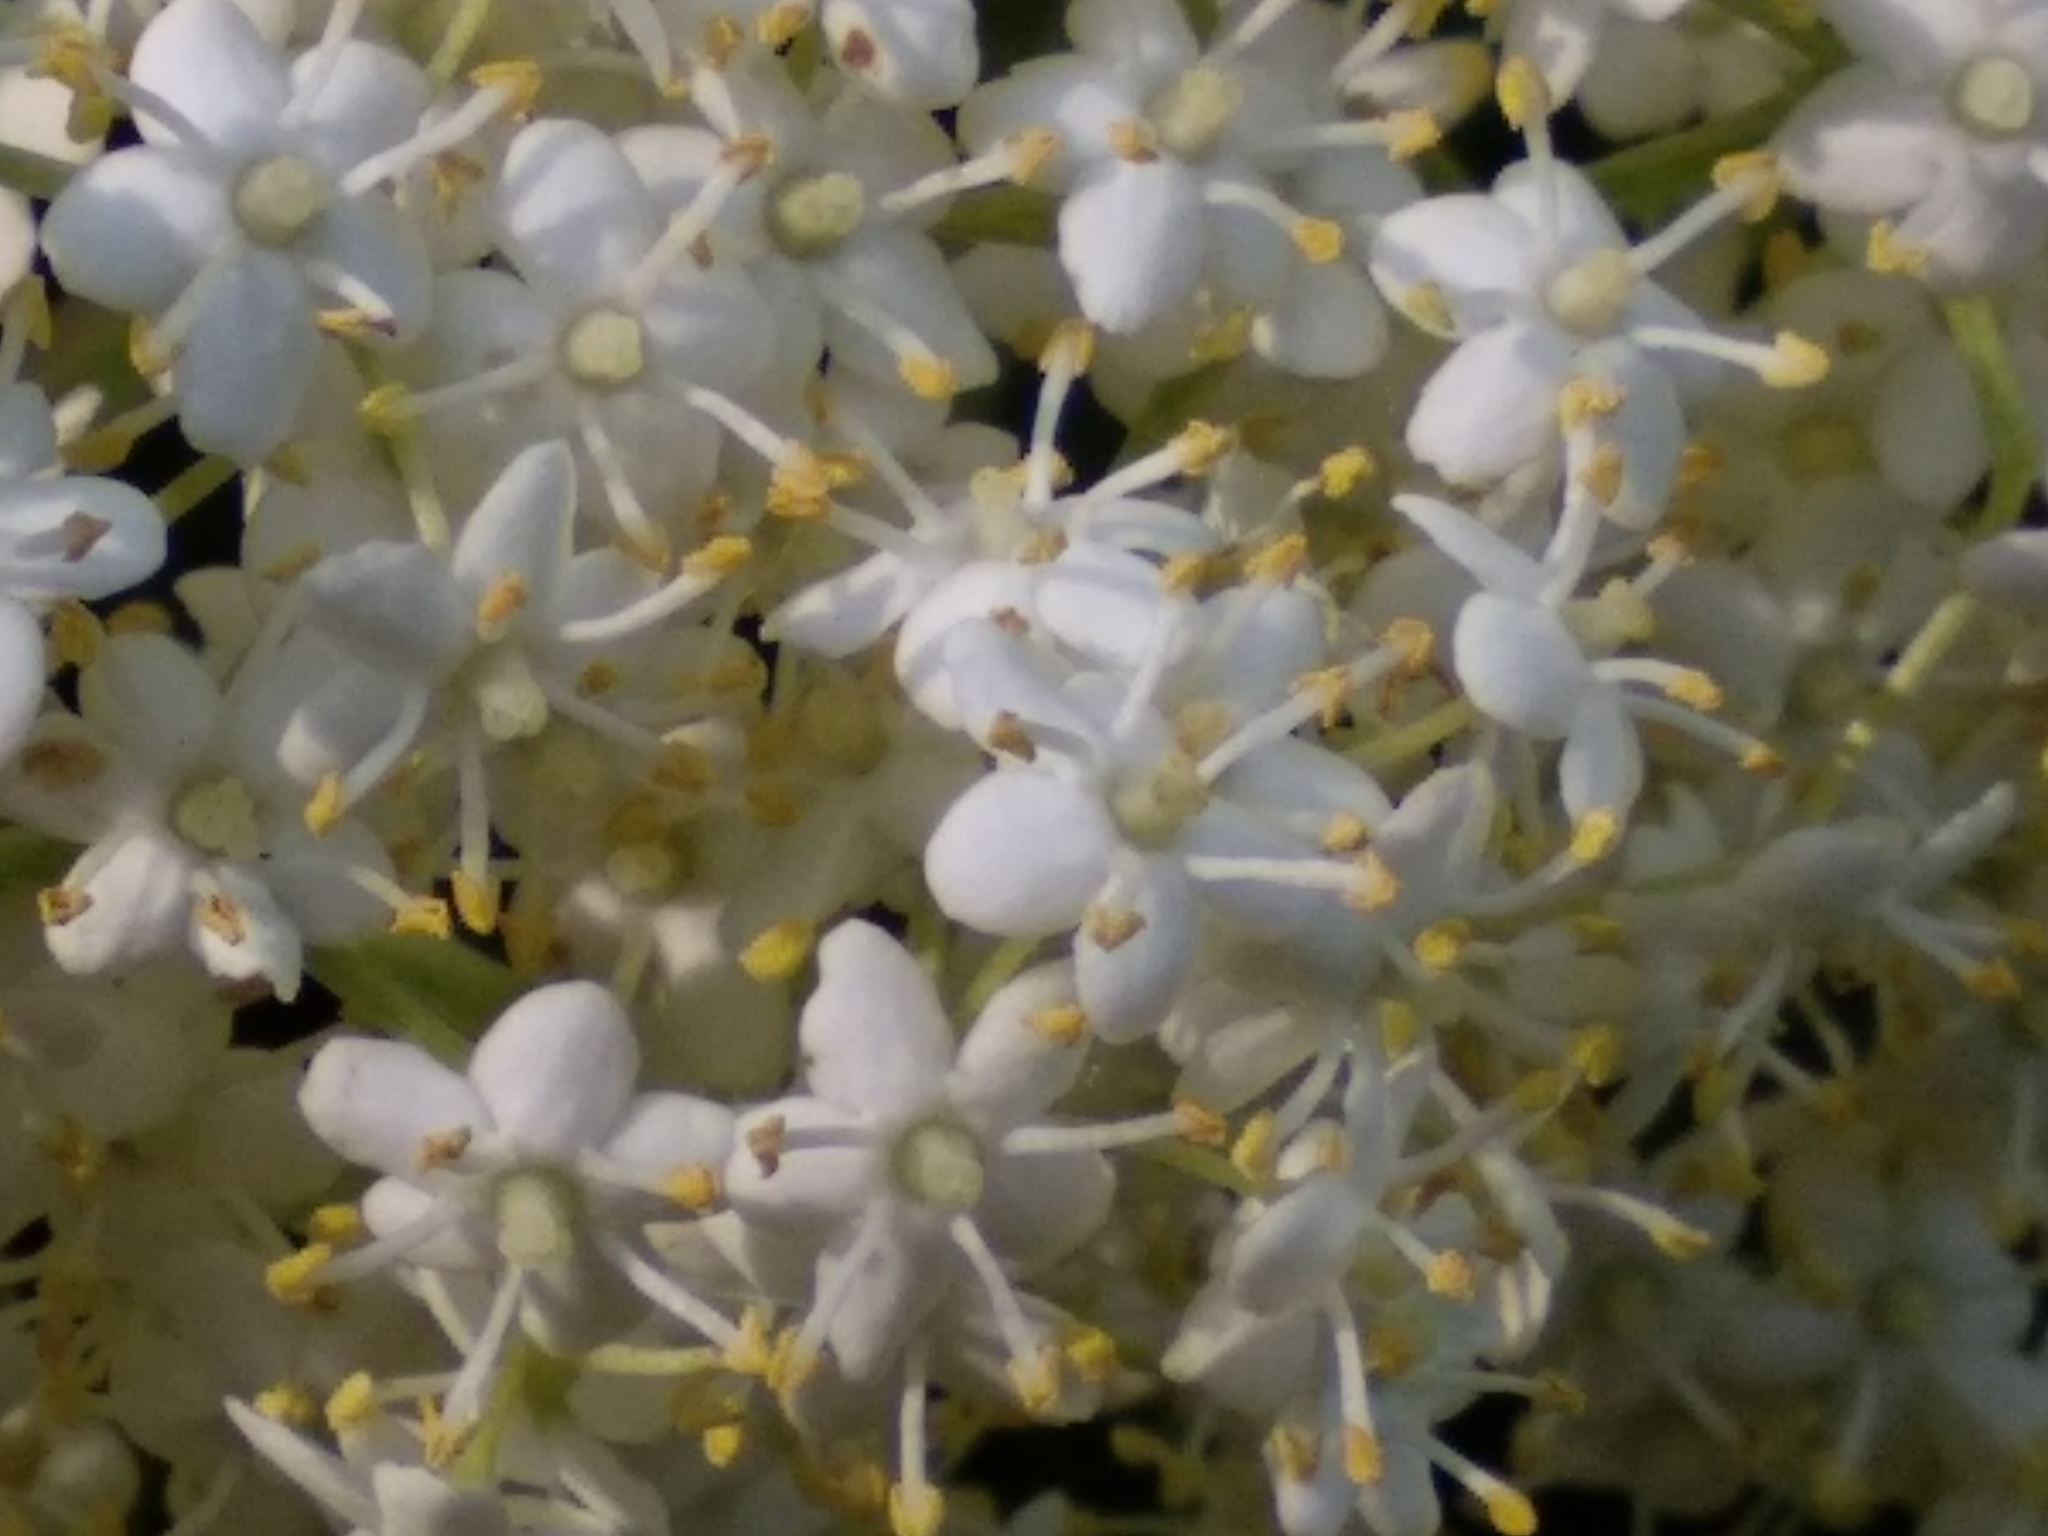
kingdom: Plantae
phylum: Tracheophyta
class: Magnoliopsida
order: Dipsacales
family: Viburnaceae
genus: Sambucus
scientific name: Sambucus nigra
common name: Elder
